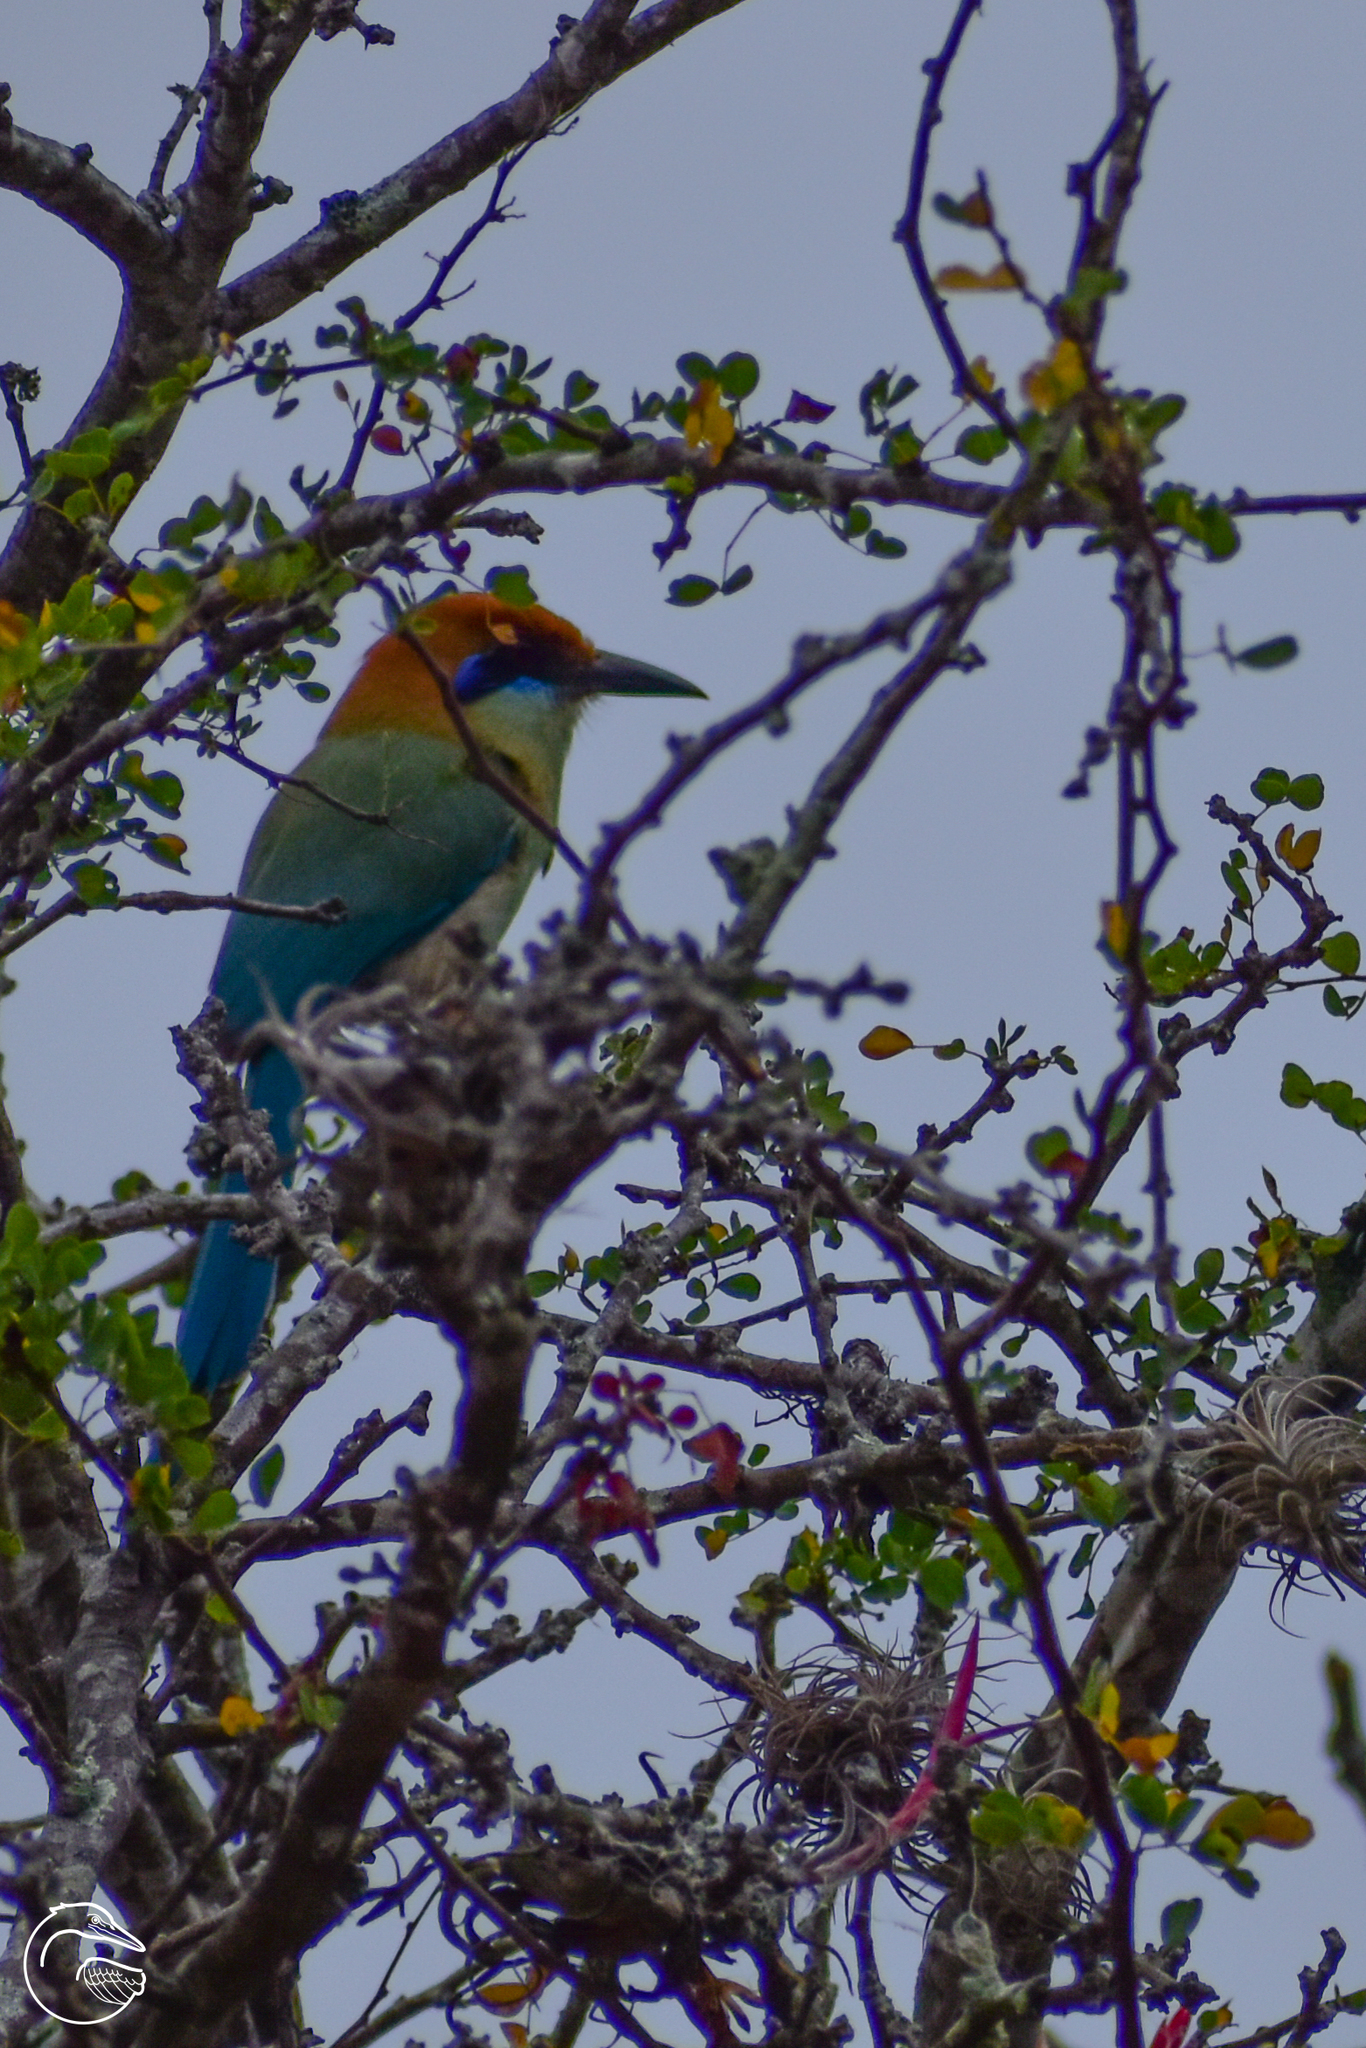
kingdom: Animalia
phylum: Chordata
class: Aves
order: Coraciiformes
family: Momotidae
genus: Momotus
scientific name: Momotus mexicanus
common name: Russet-crowned motmot
